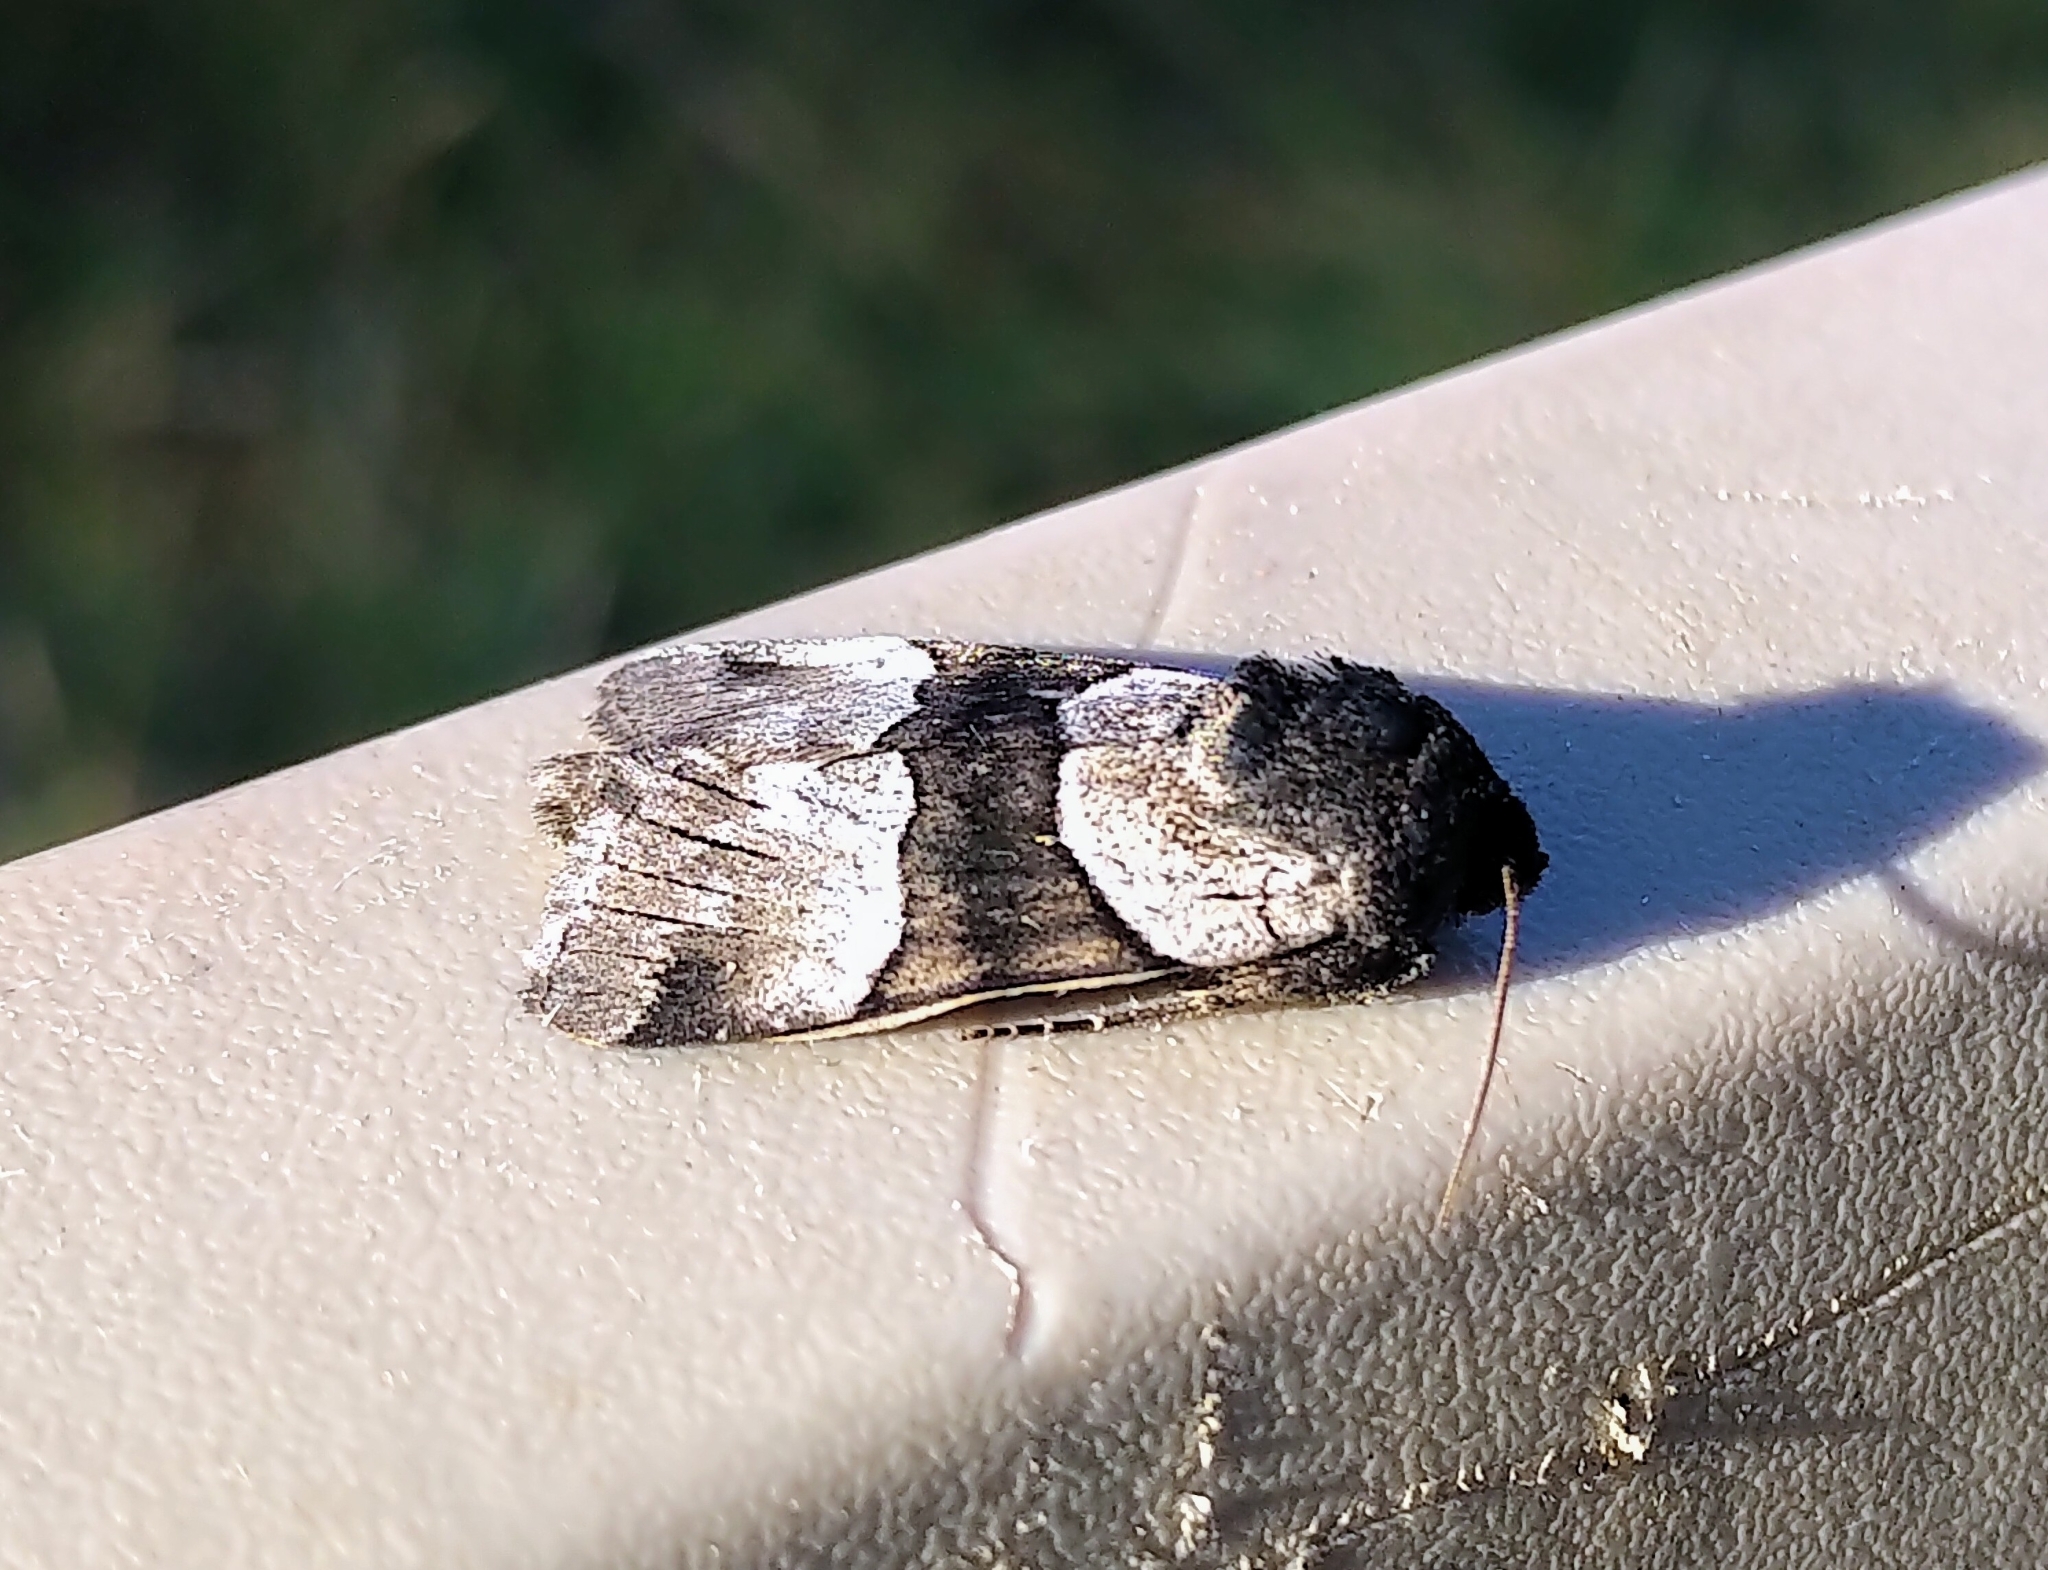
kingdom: Animalia
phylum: Arthropoda
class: Insecta
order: Lepidoptera
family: Noctuidae
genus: Sympistis
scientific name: Sympistis piffardi
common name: Three-striped oncocnemis
